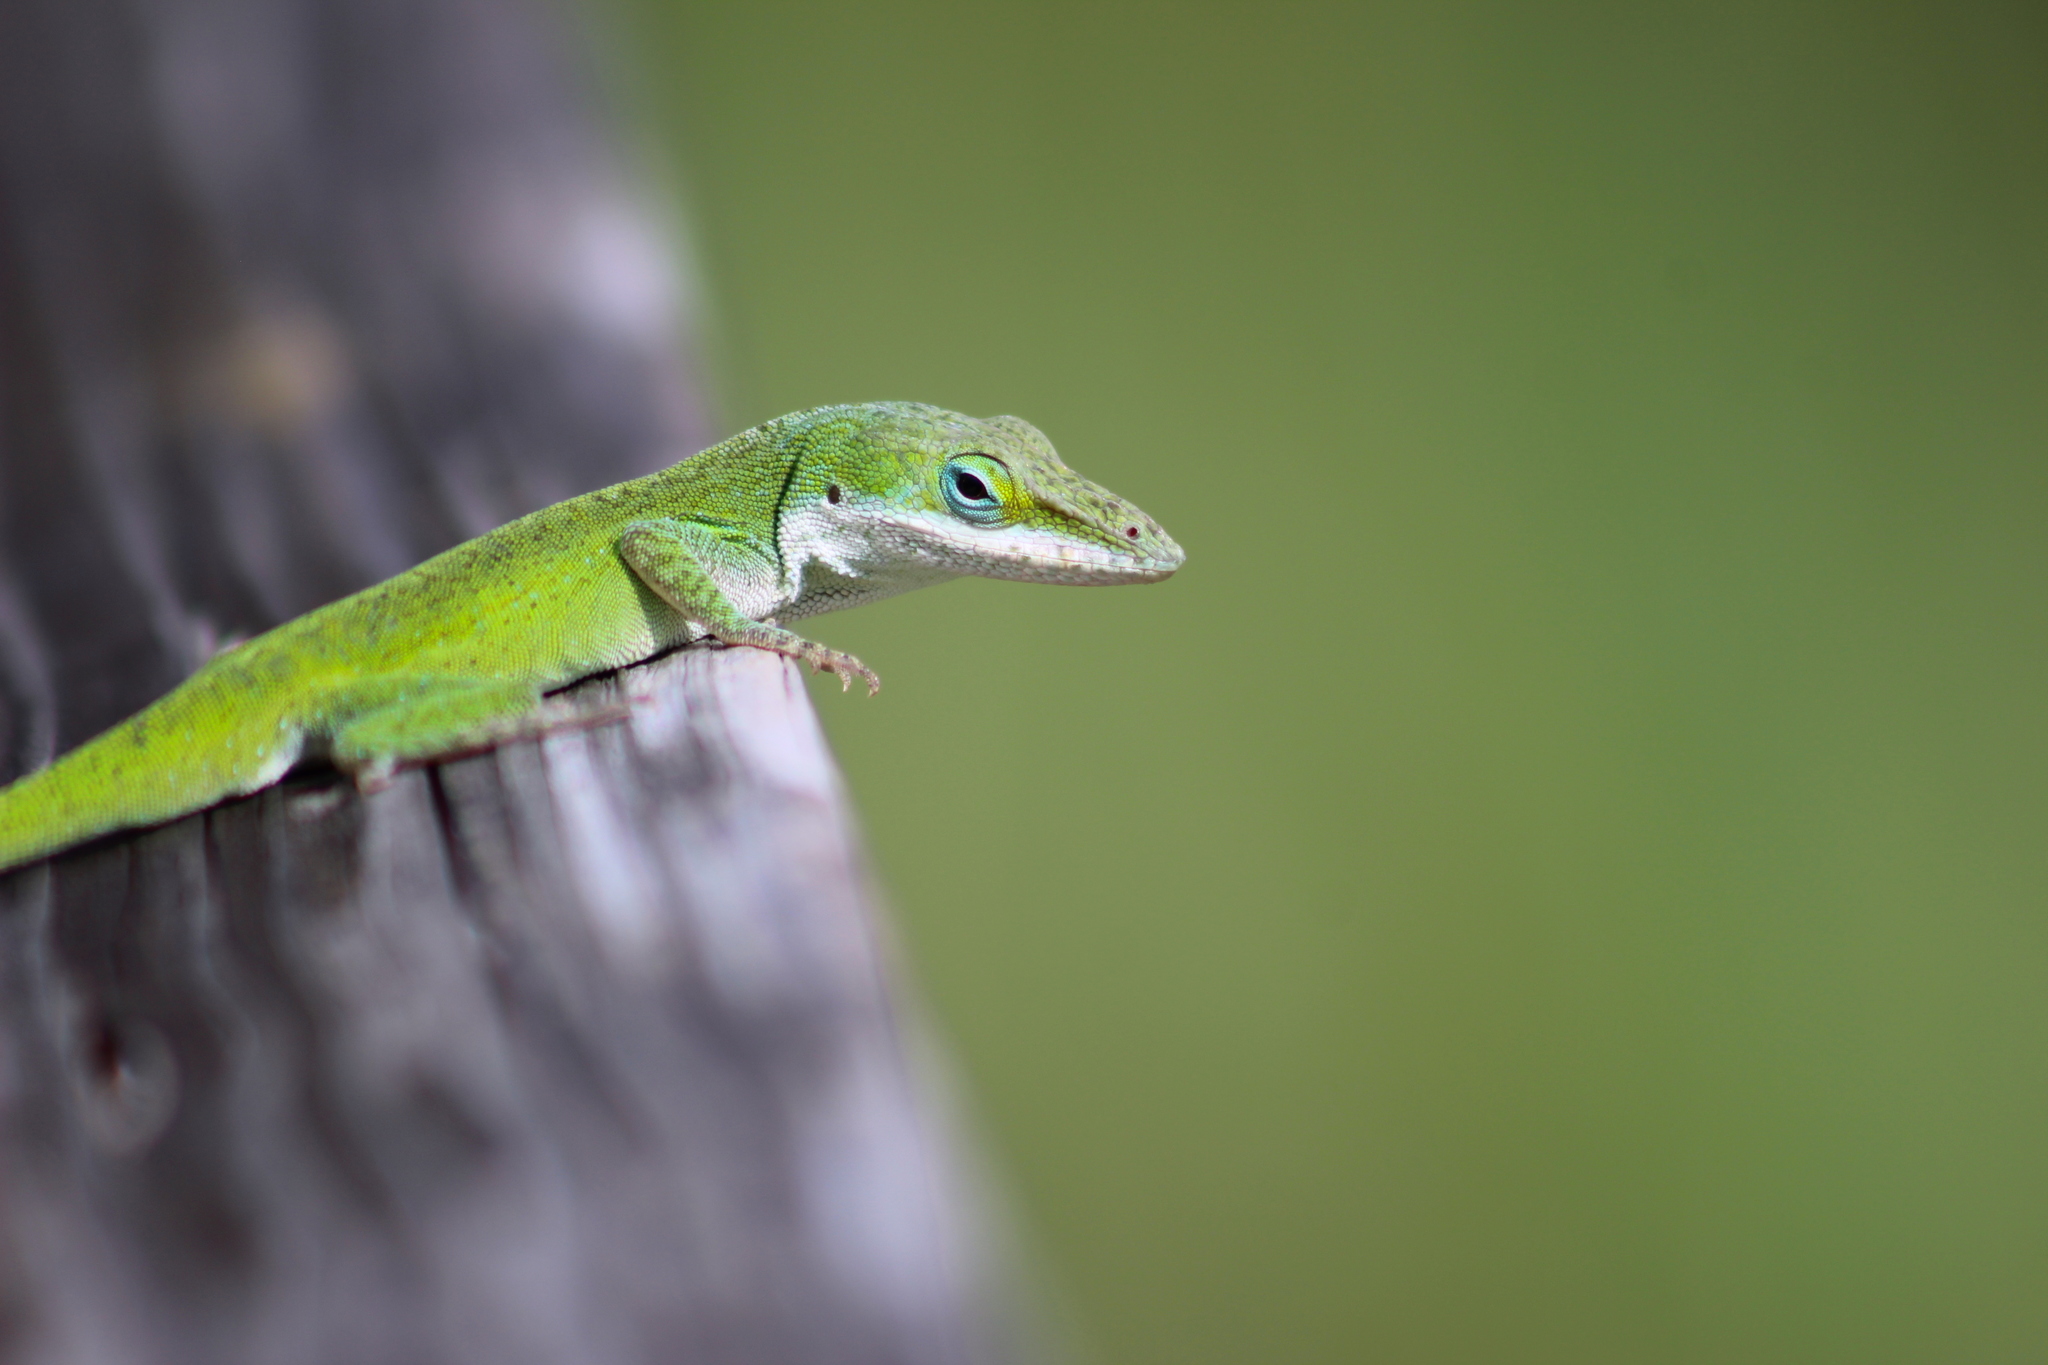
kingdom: Animalia
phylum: Chordata
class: Squamata
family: Dactyloidae
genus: Anolis
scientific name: Anolis carolinensis
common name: Green anole
